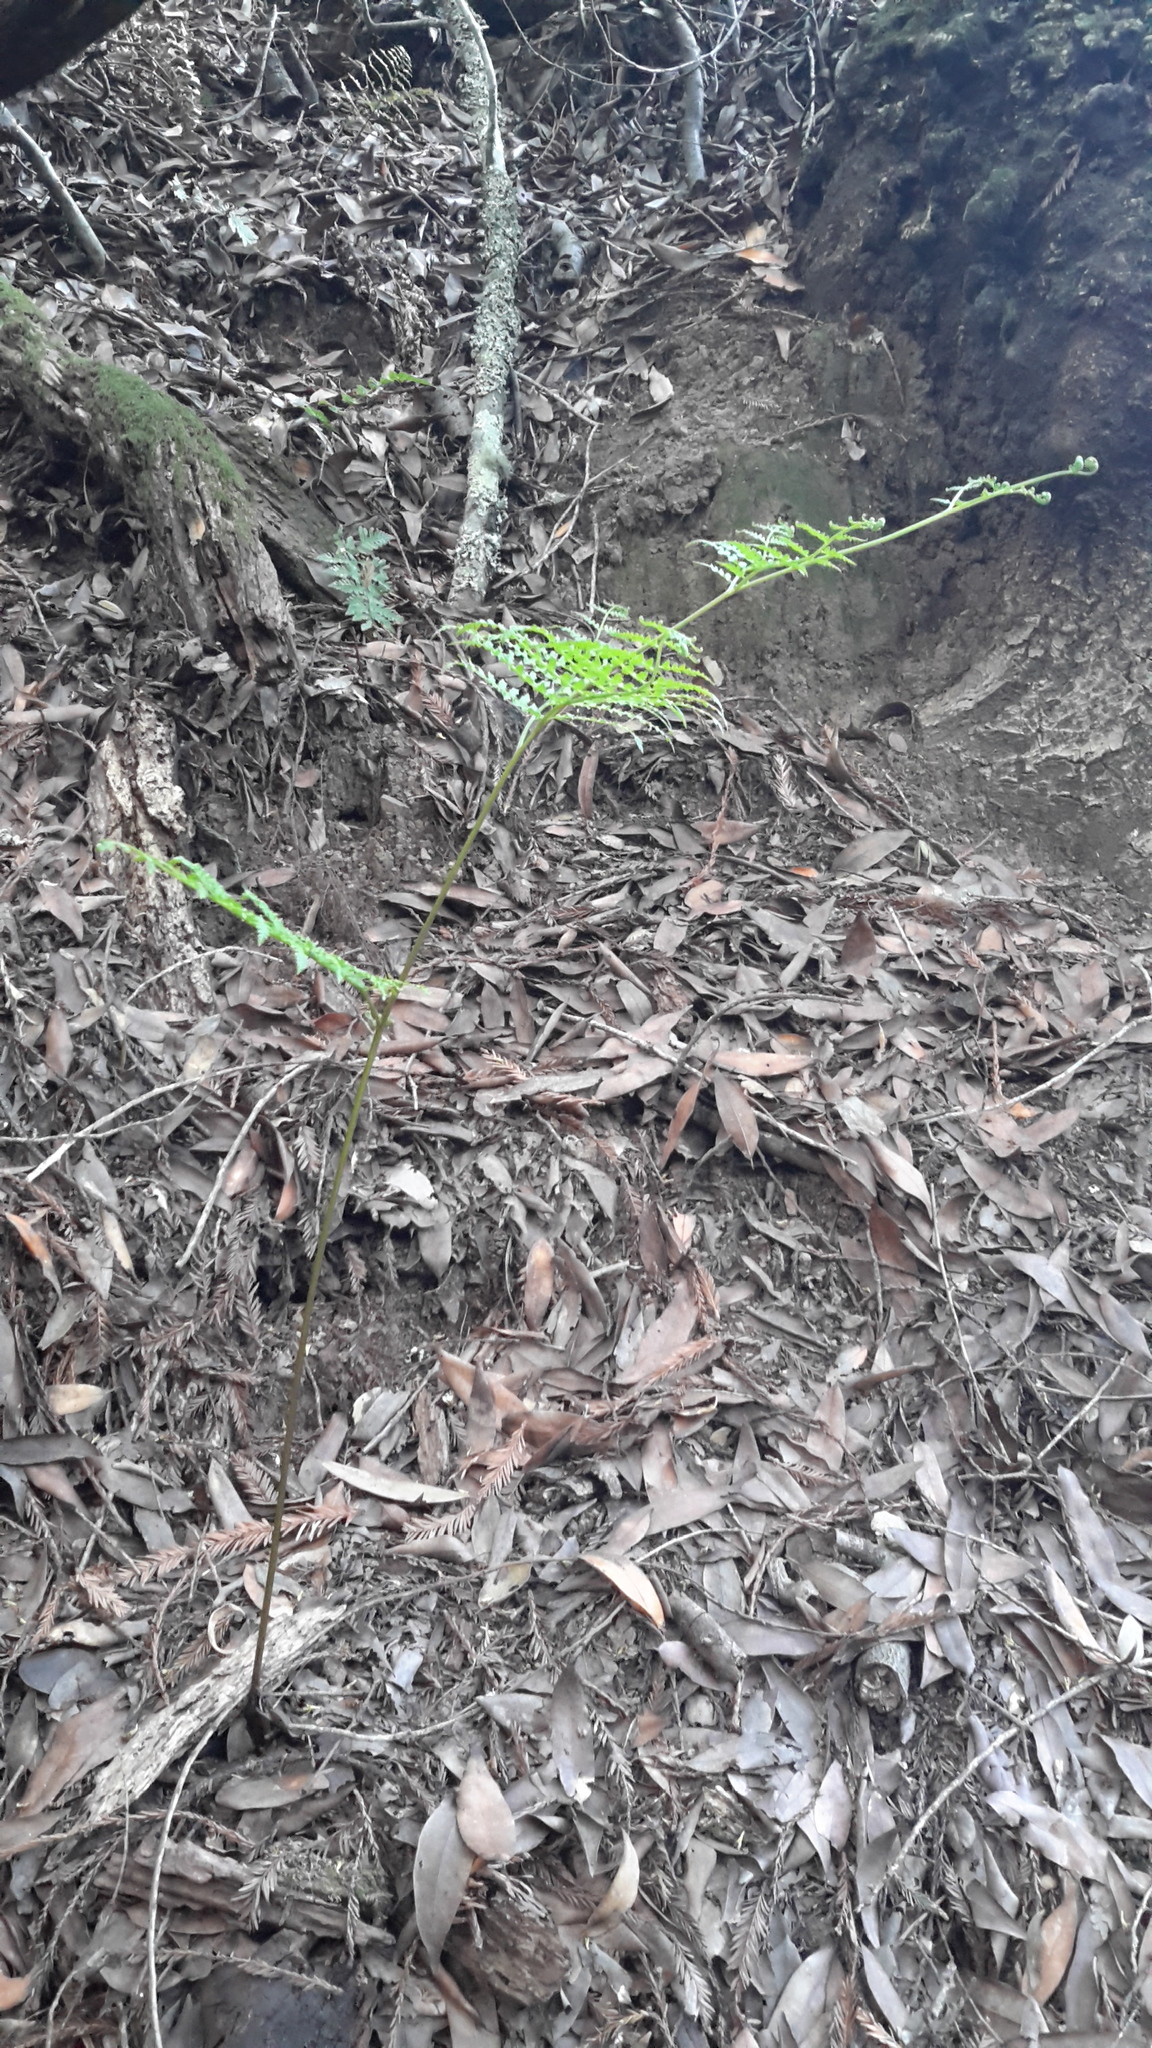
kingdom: Plantae
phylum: Tracheophyta
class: Polypodiopsida
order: Polypodiales
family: Dennstaedtiaceae
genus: Pteridium
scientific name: Pteridium aquilinum
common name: Bracken
